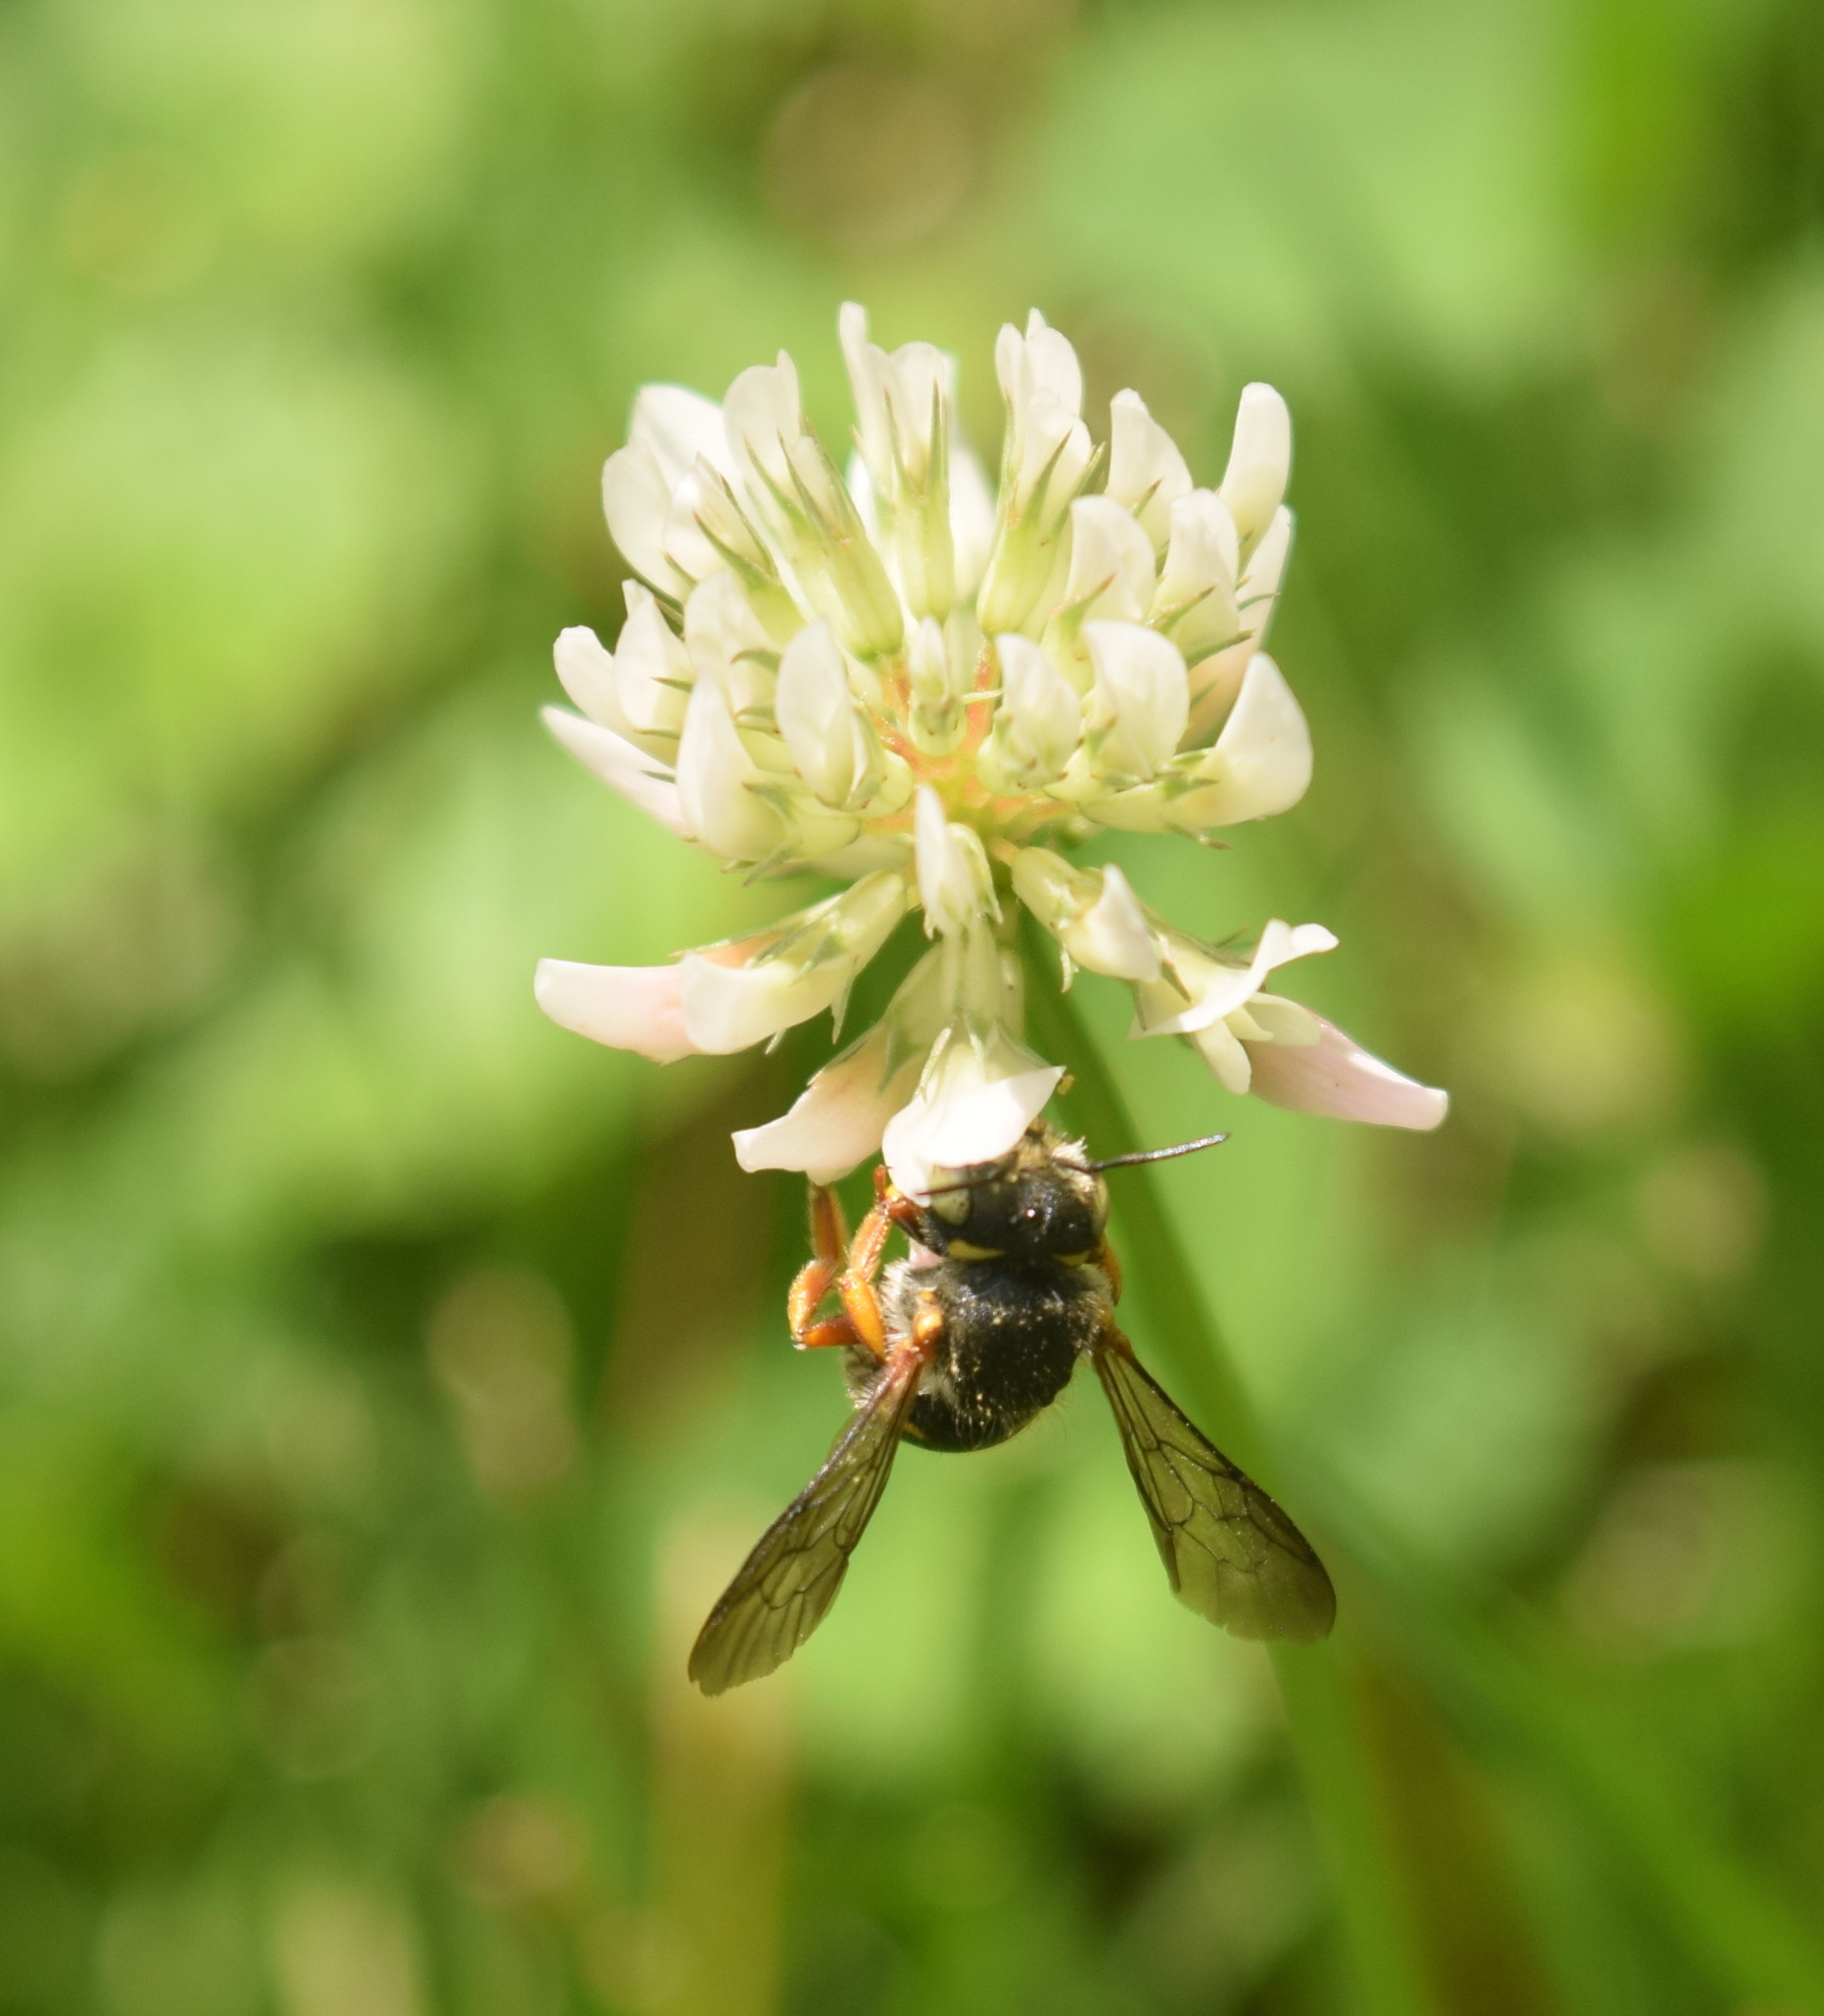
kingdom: Animalia
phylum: Arthropoda
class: Insecta
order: Hymenoptera
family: Megachilidae
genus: Anthidium
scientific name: Anthidium oblongatum
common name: Oblong wool carder bee
